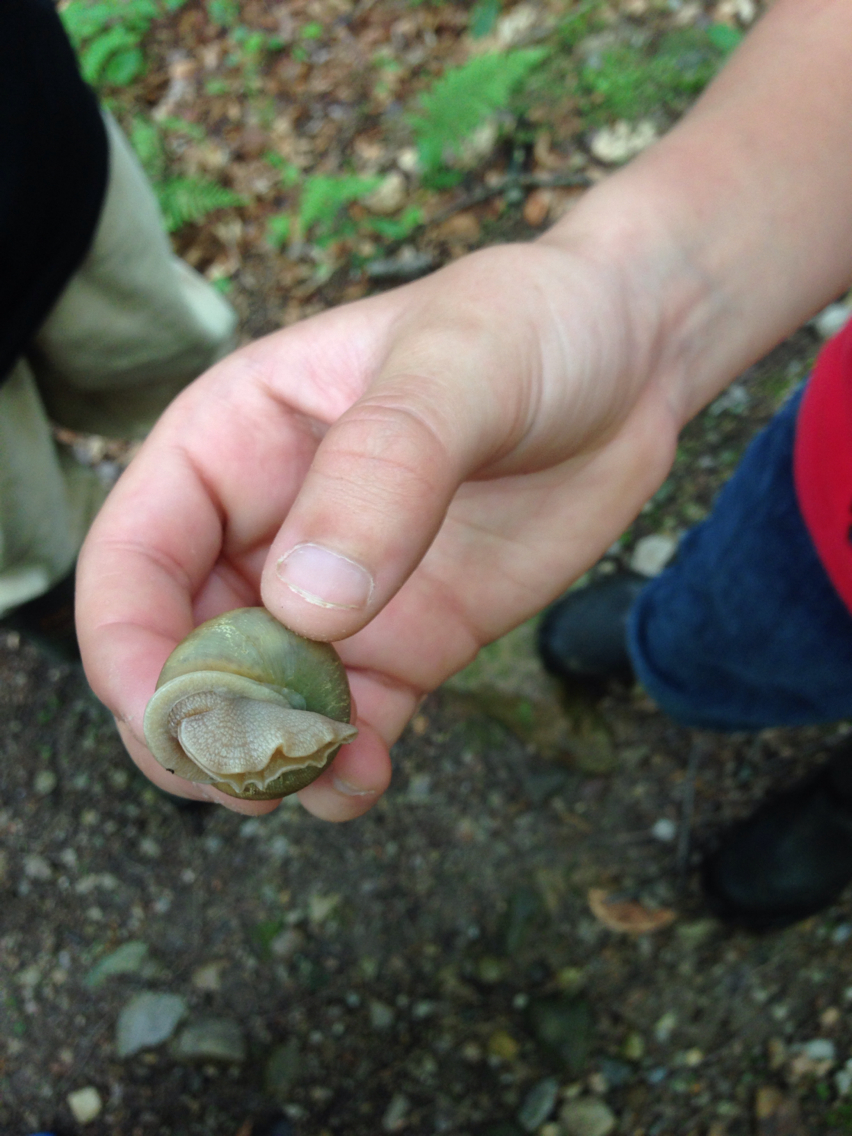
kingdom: Animalia
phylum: Mollusca
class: Gastropoda
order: Stylommatophora
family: Polygyridae
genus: Neohelix
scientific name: Neohelix albolabris
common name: Eastern whitelip
